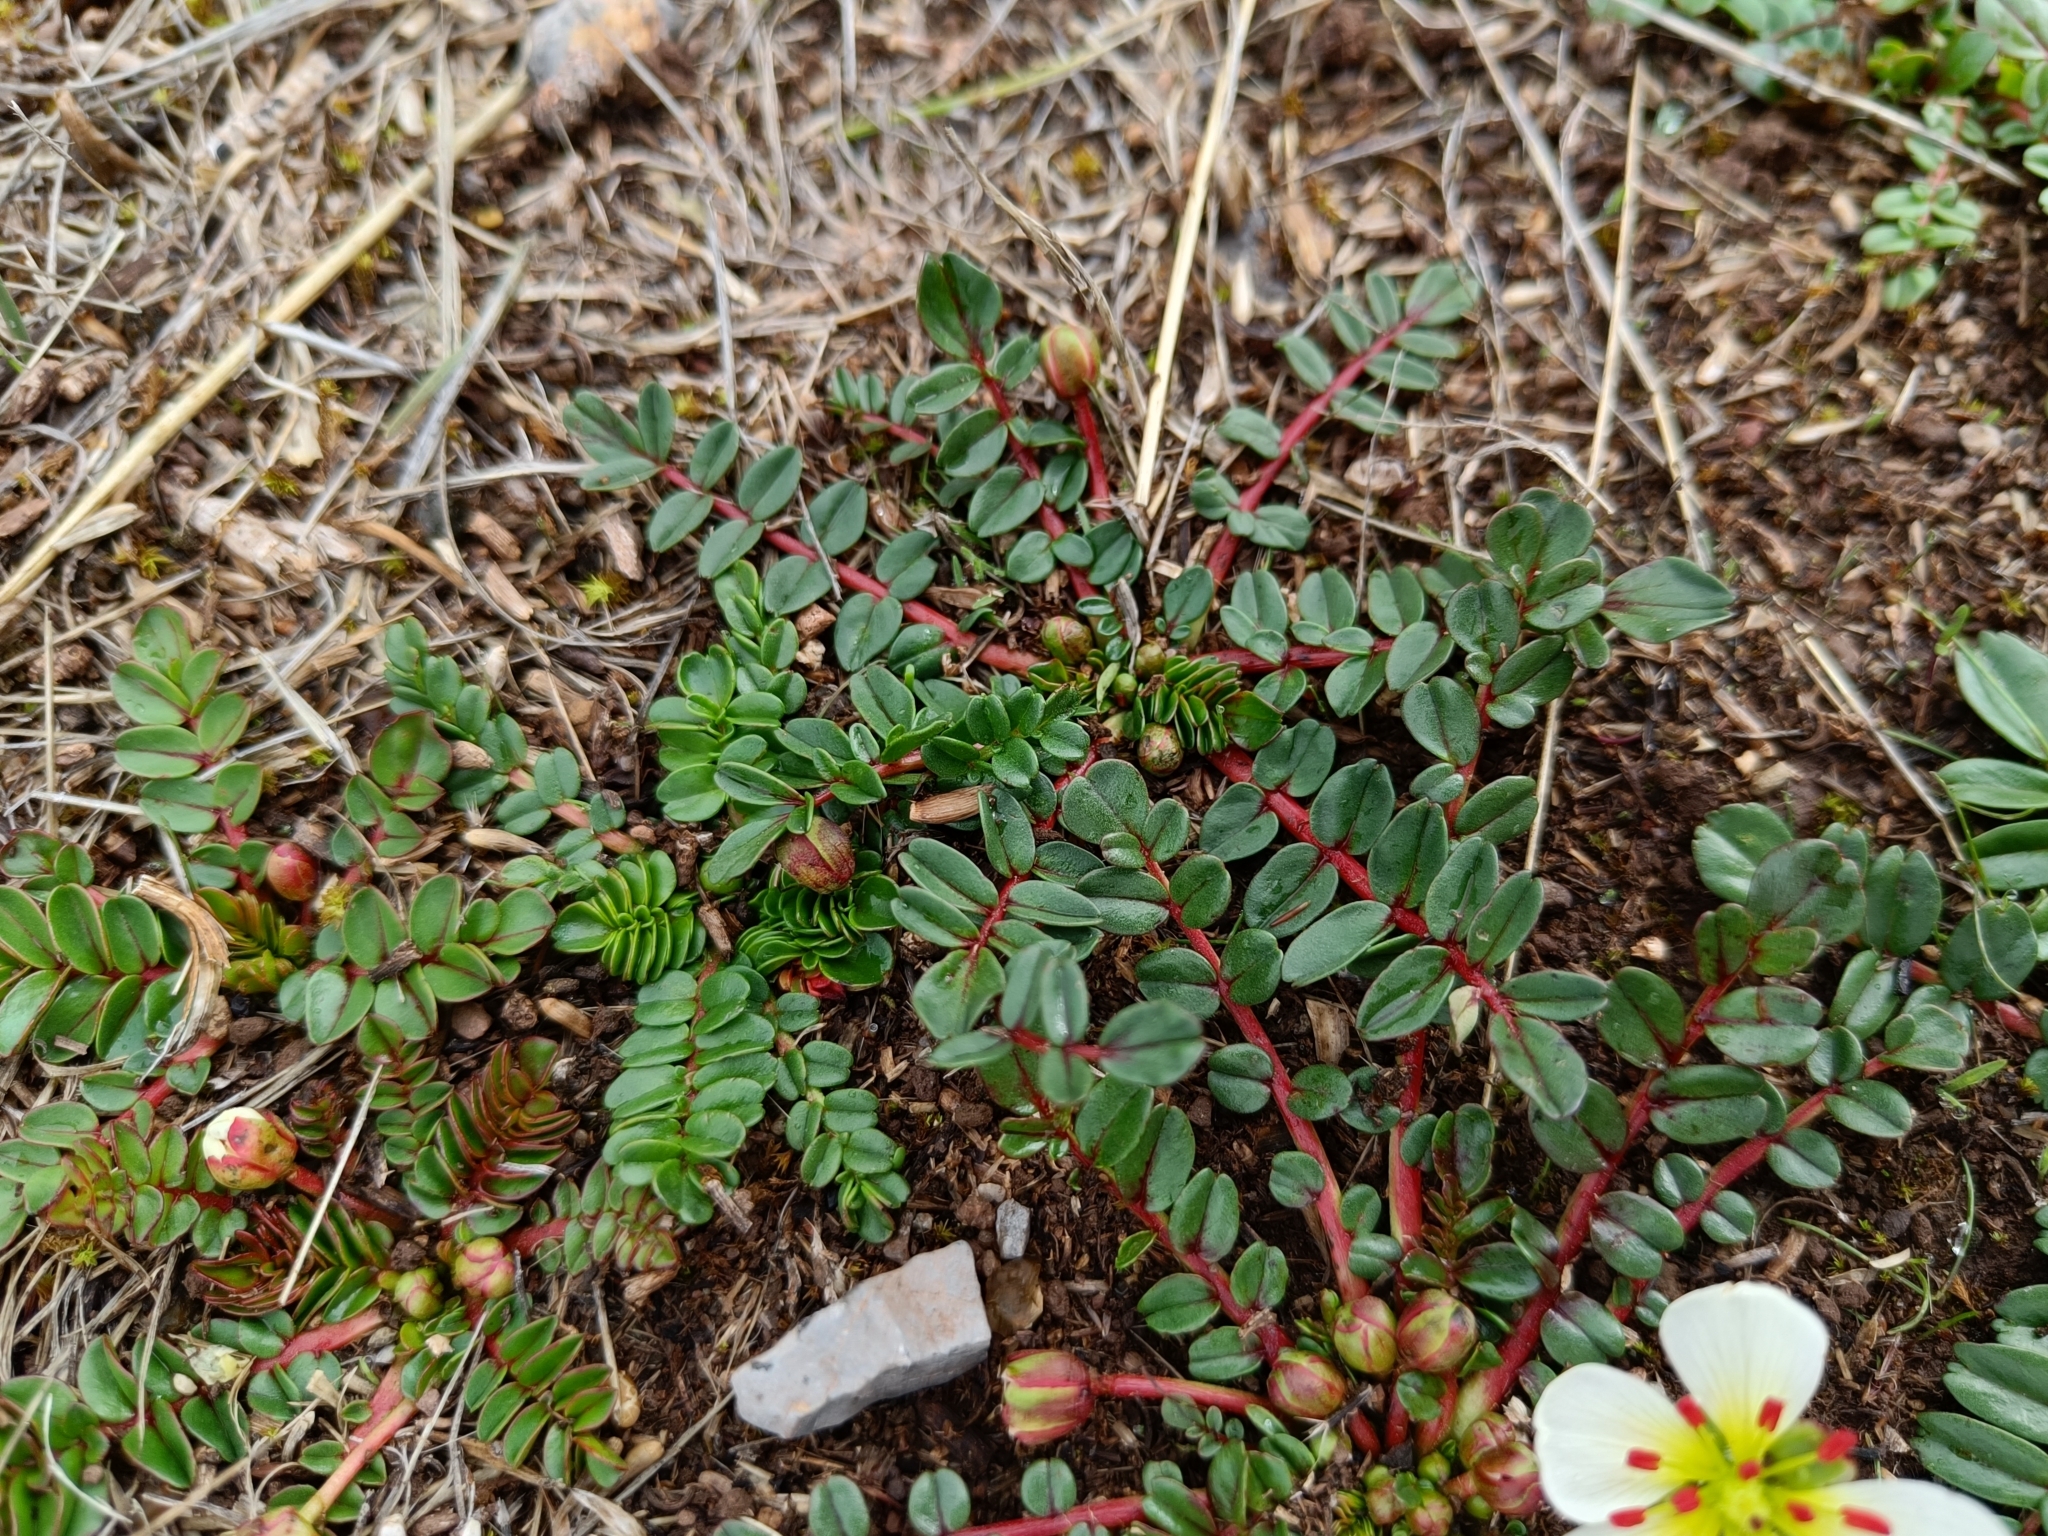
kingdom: Plantae
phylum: Tracheophyta
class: Magnoliopsida
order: Geraniales
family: Hypseocharitaceae
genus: Hypseocharis
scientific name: Hypseocharis bilobata
